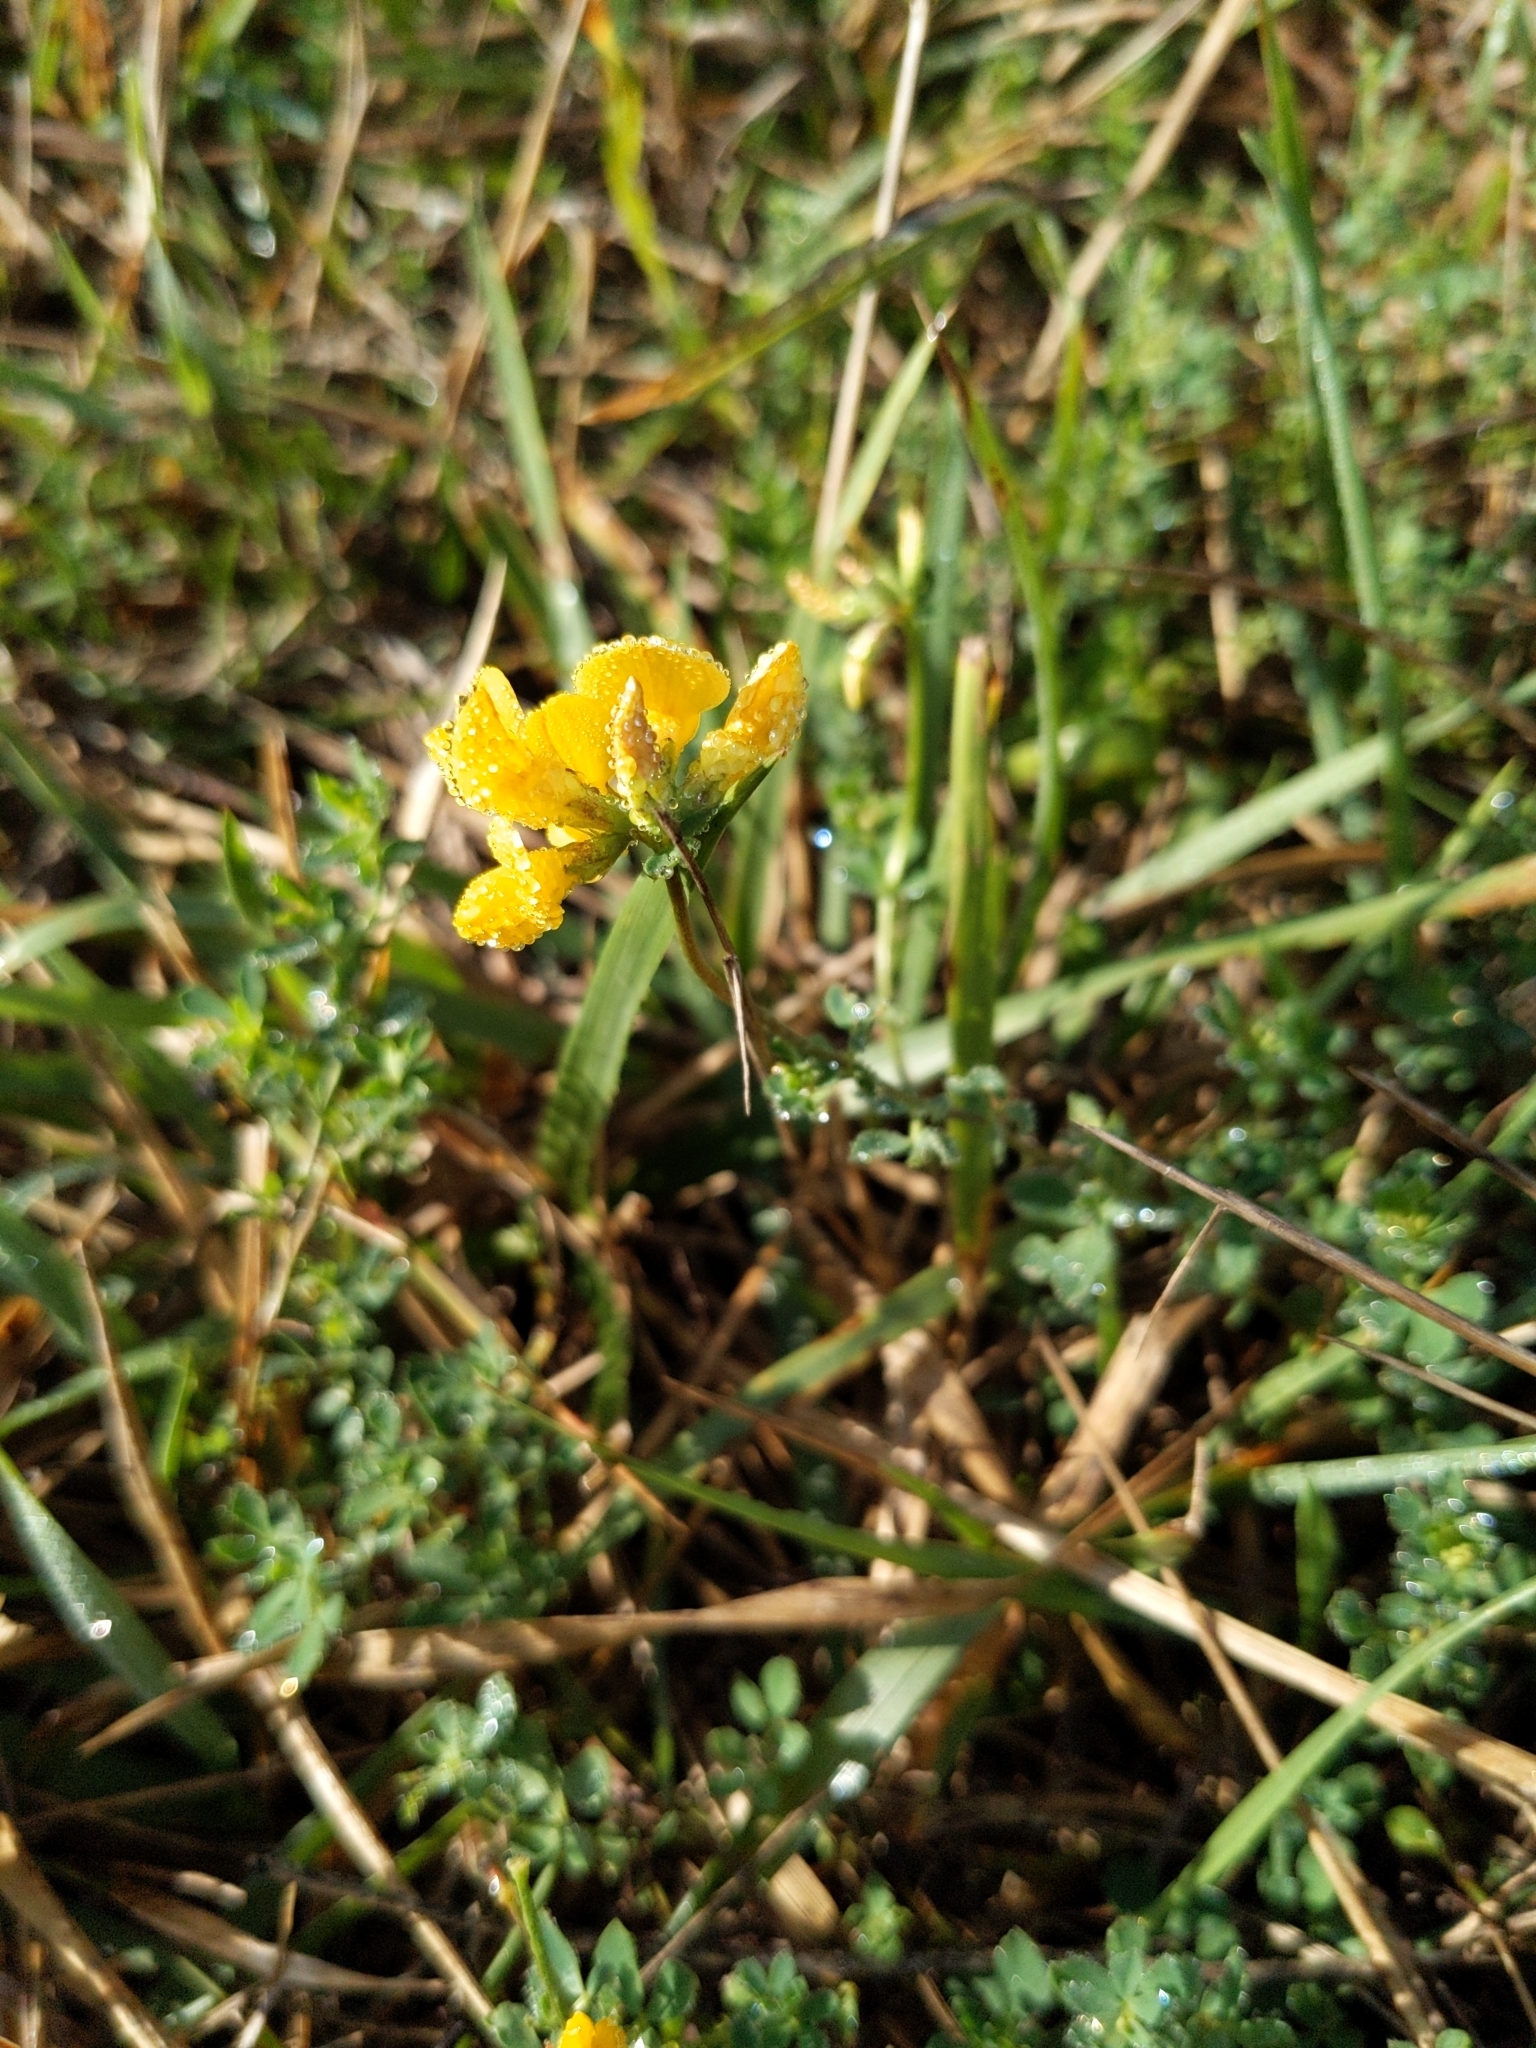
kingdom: Plantae
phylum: Tracheophyta
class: Magnoliopsida
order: Fabales
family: Fabaceae
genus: Lotus
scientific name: Lotus corniculatus
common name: Common bird's-foot-trefoil
